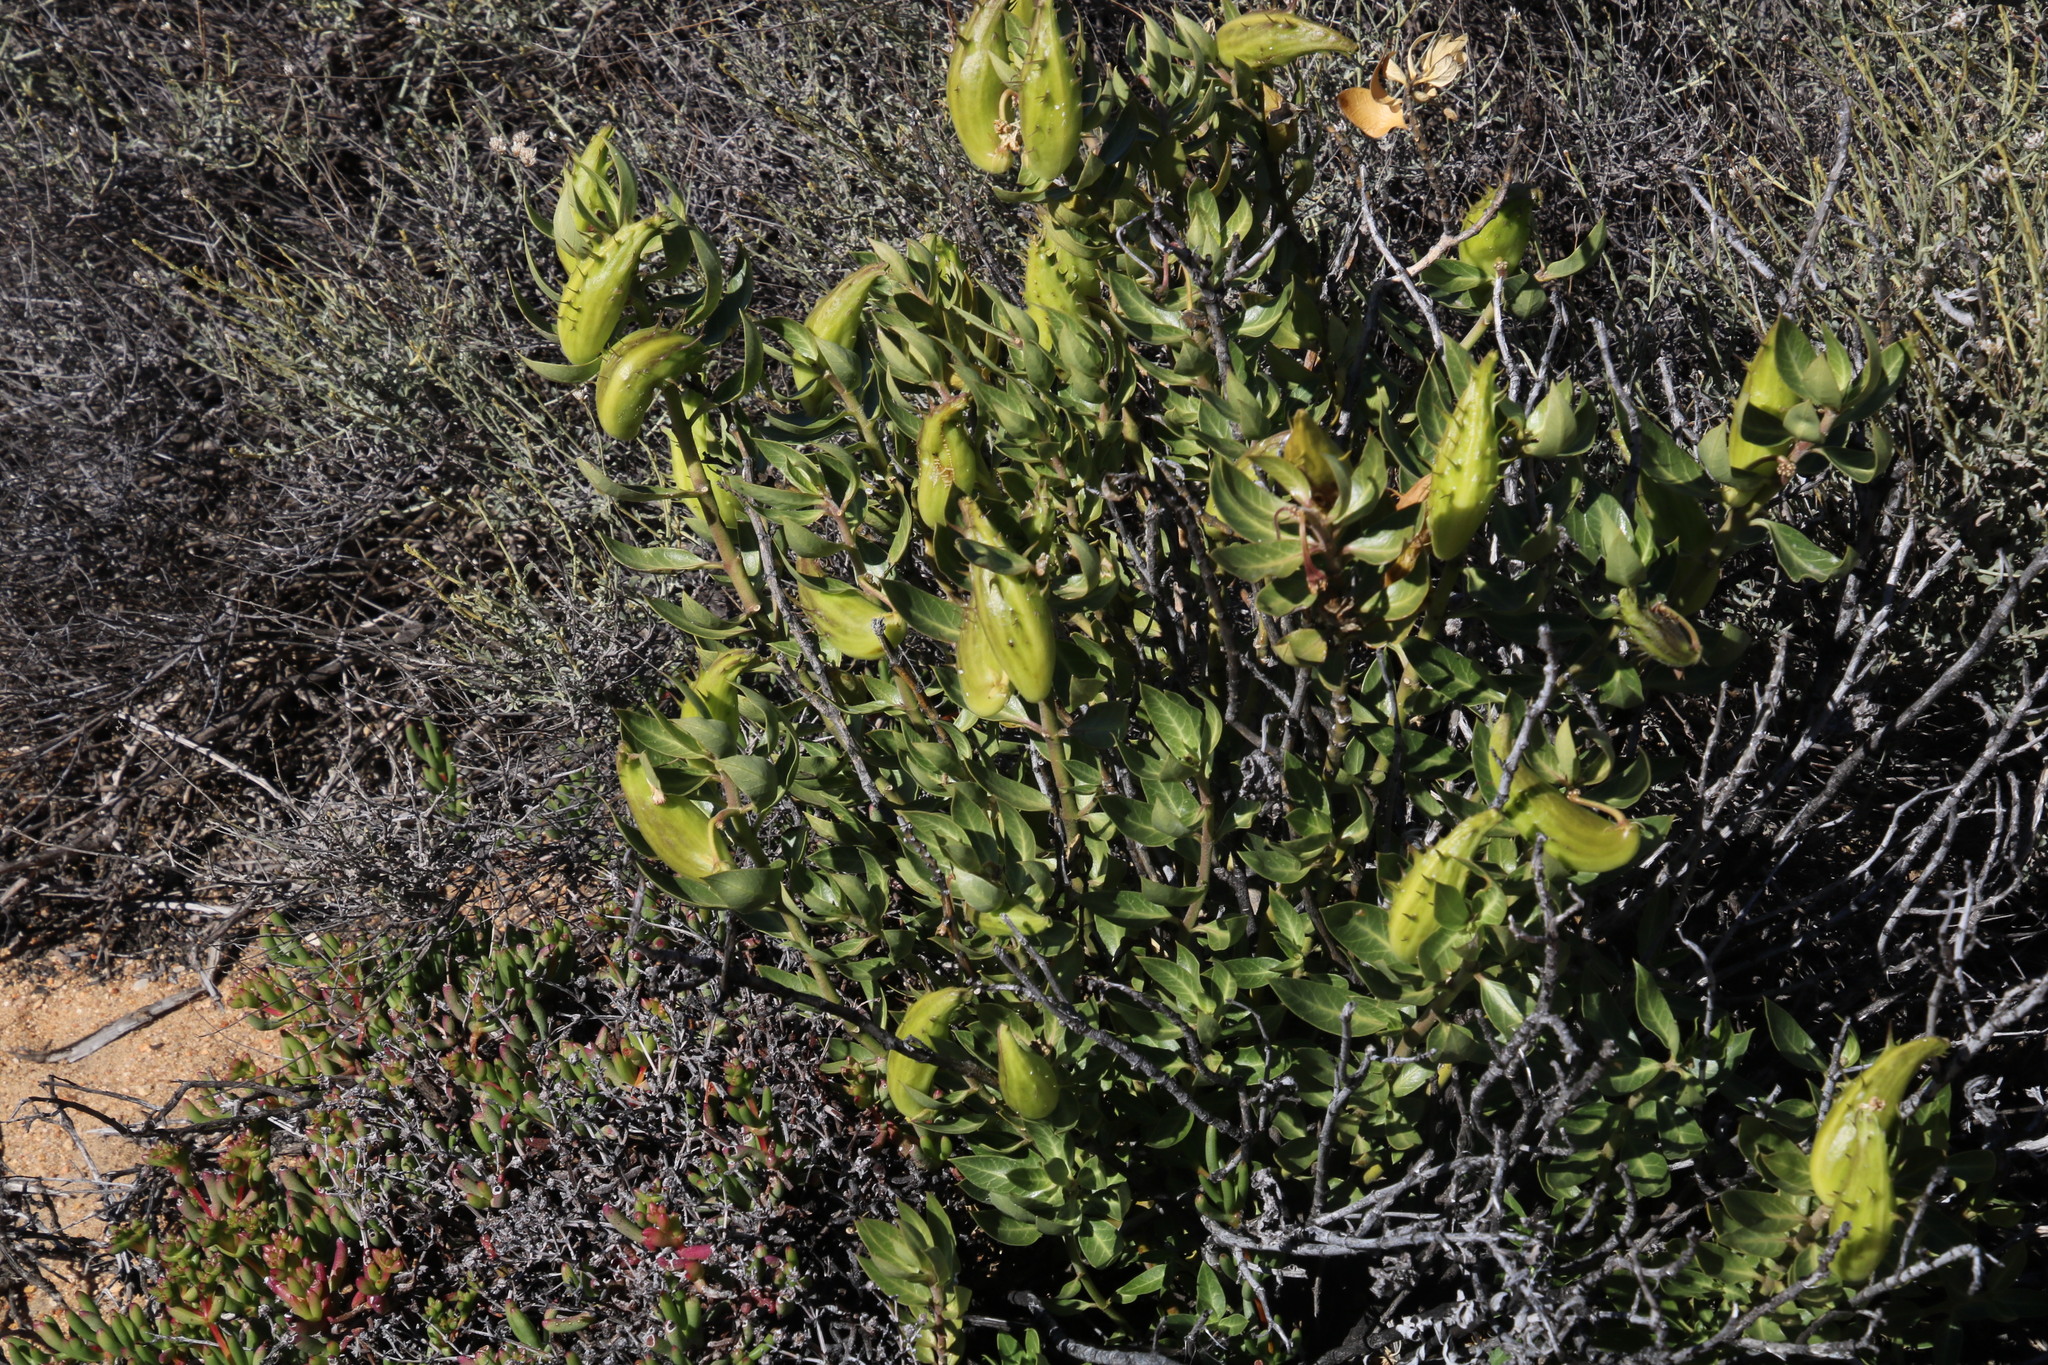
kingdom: Plantae
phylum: Tracheophyta
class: Magnoliopsida
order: Gentianales
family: Apocynaceae
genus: Gomphocarpus
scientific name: Gomphocarpus cancellatus
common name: Wild cotton
